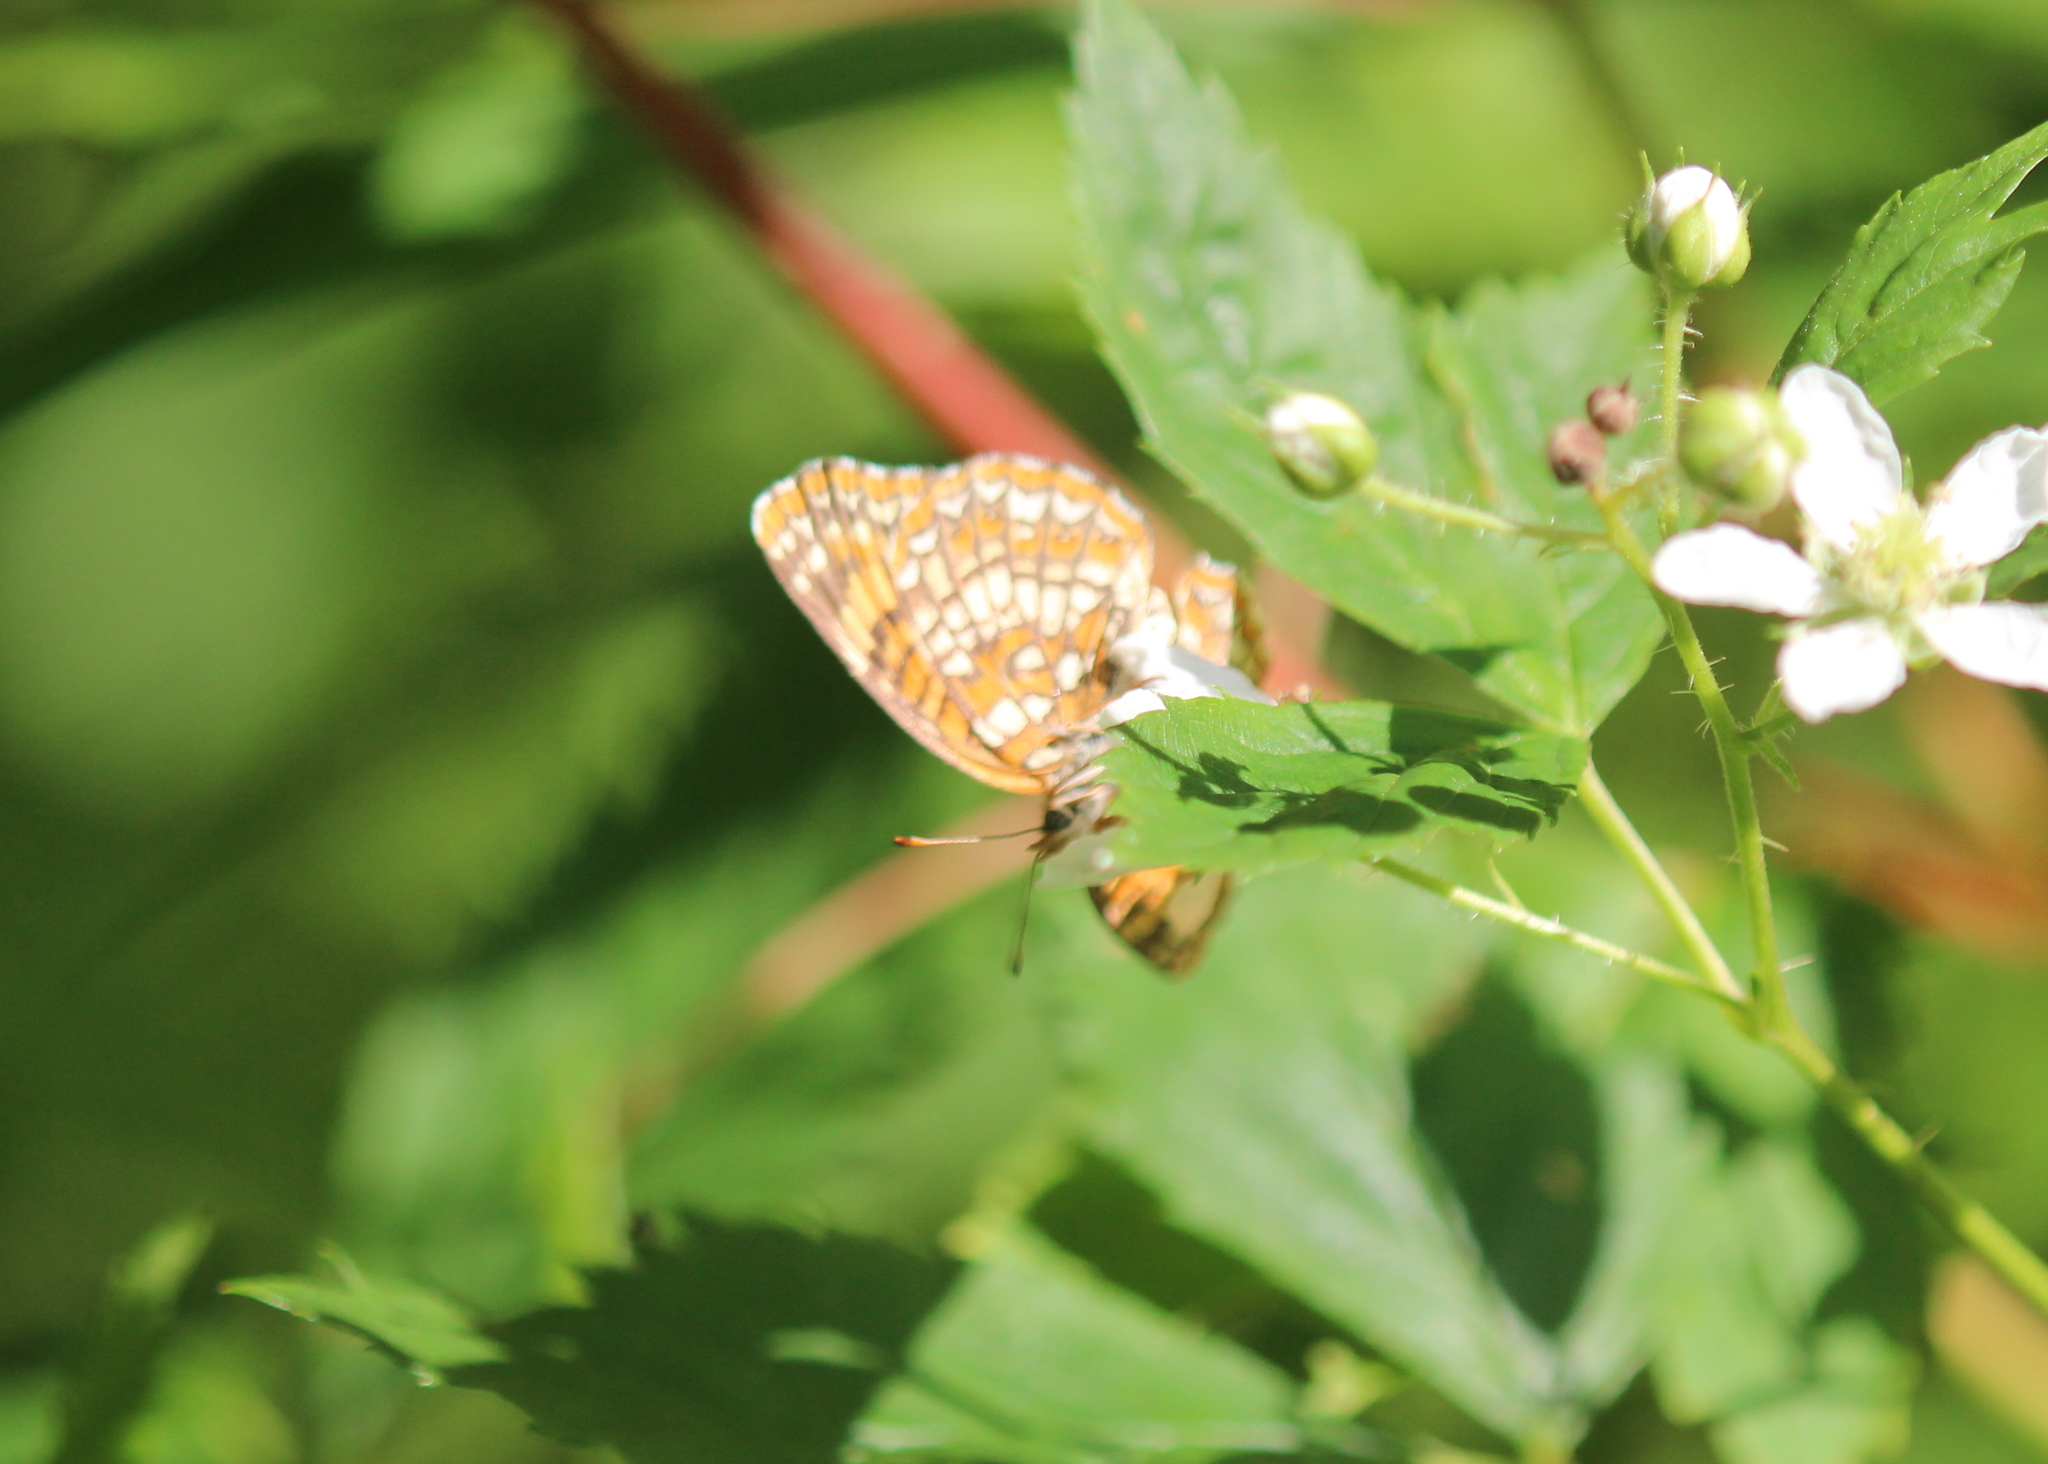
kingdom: Animalia
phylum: Arthropoda
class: Insecta
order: Lepidoptera
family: Nymphalidae
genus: Chlosyne
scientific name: Chlosyne harrisii
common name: Harris's checkerspot
